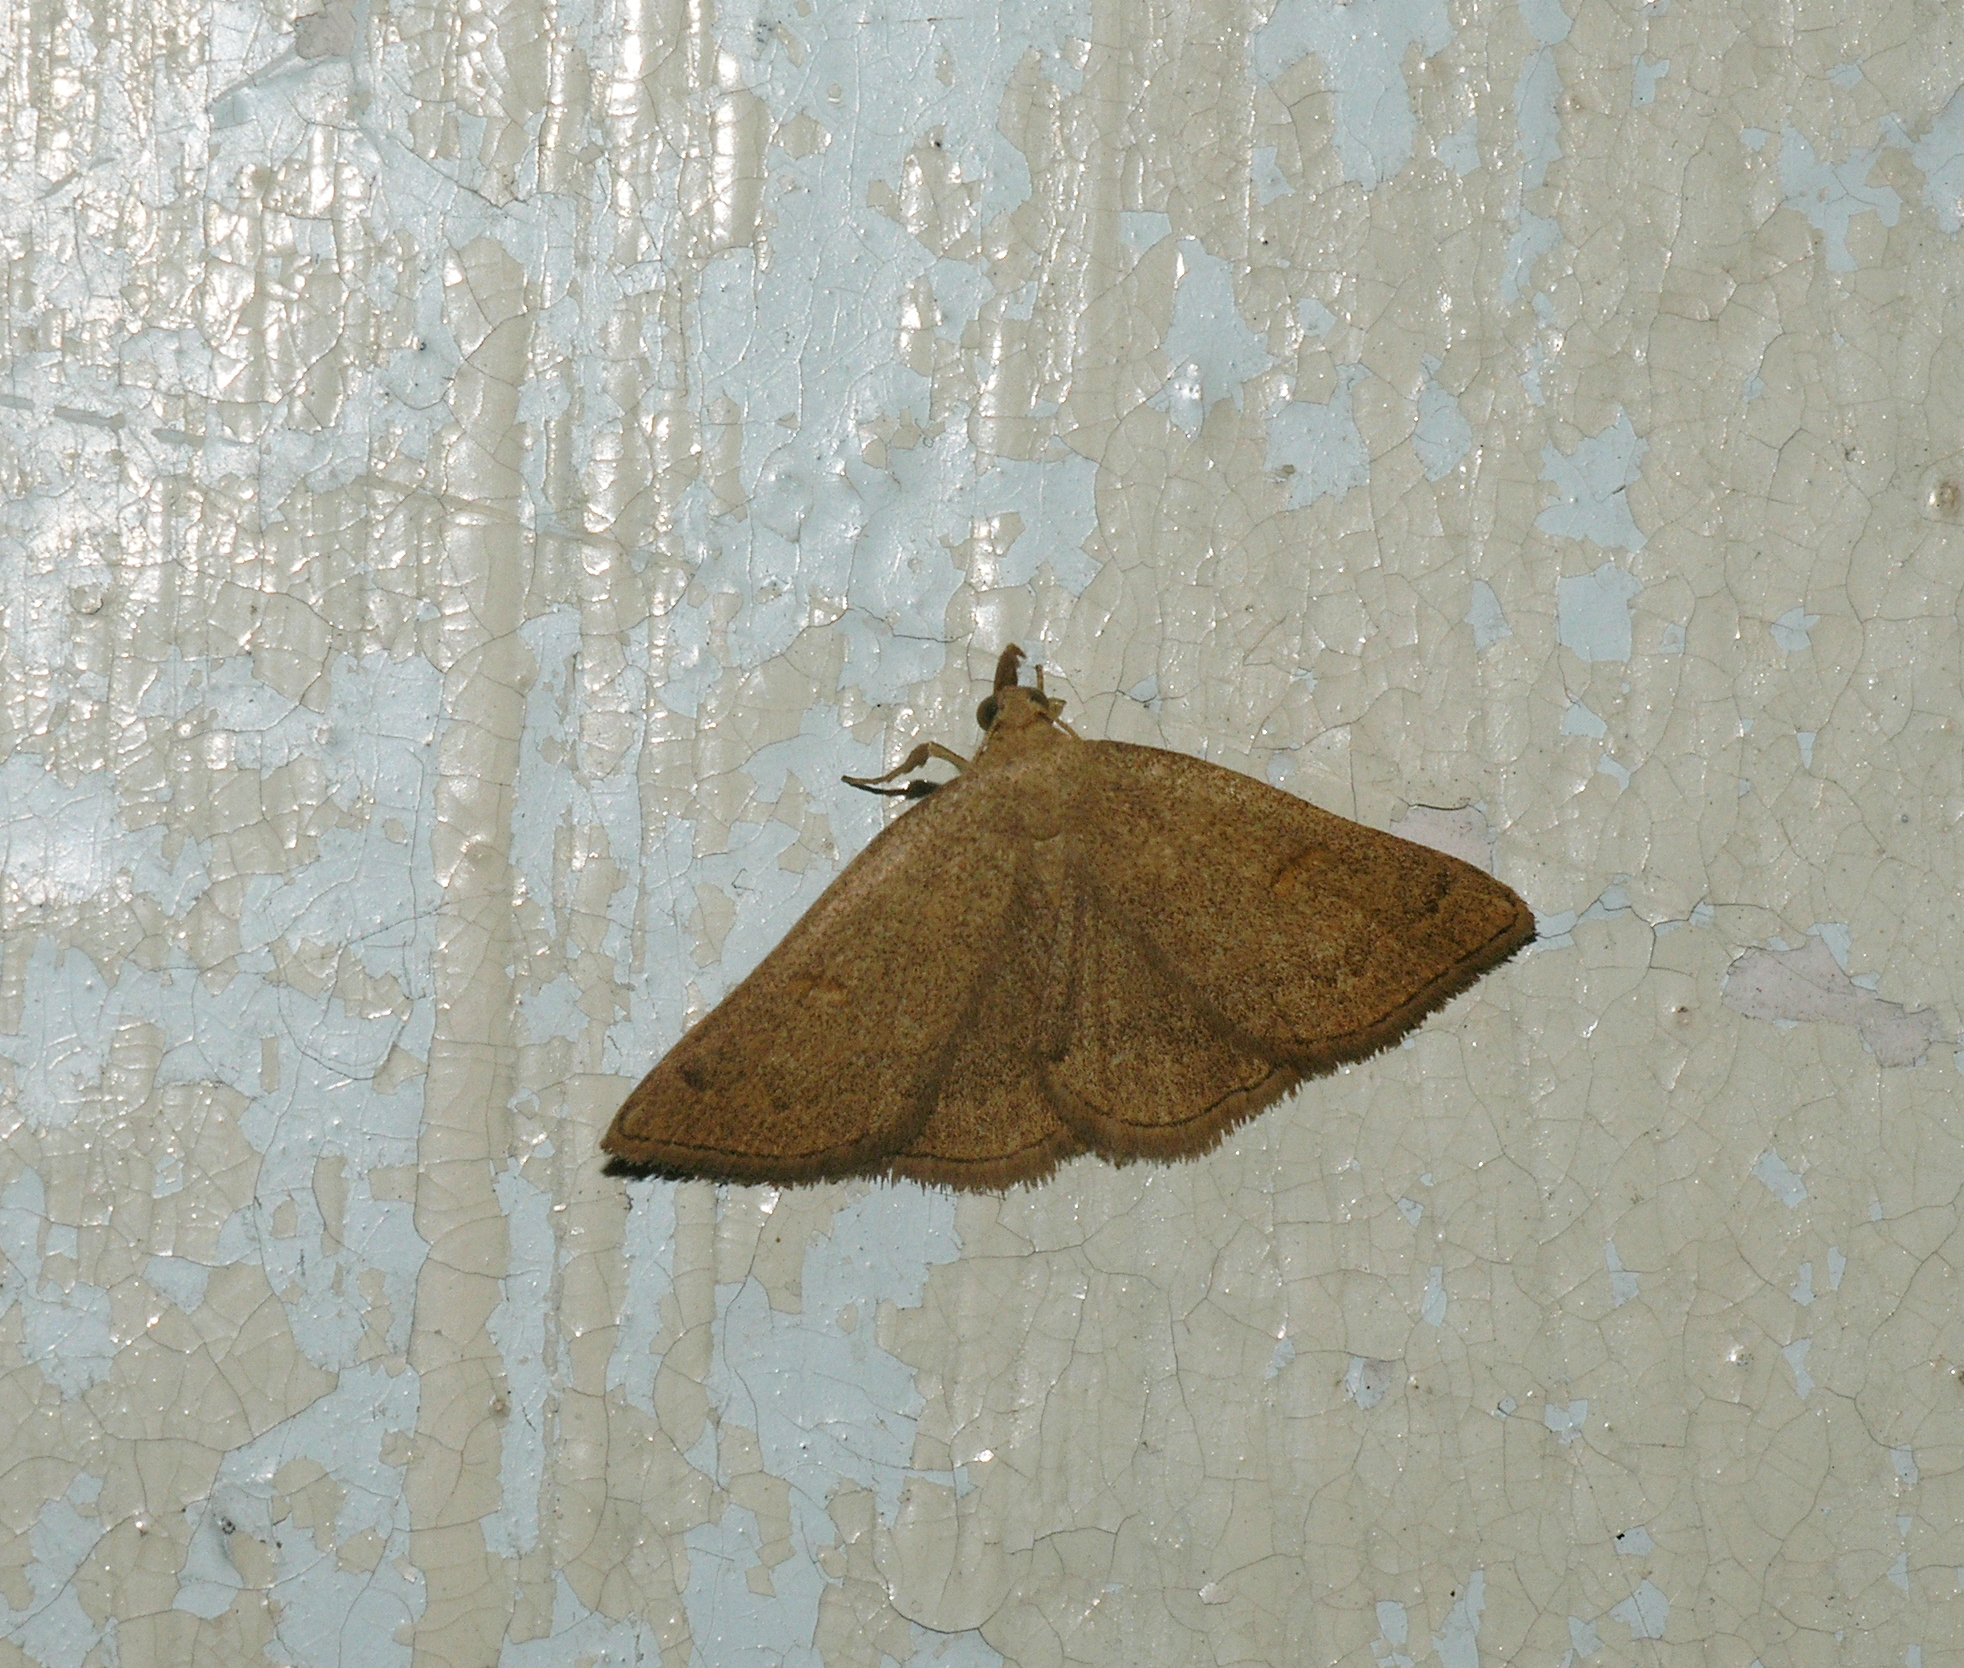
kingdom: Animalia
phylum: Arthropoda
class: Insecta
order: Lepidoptera
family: Erebidae
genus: Paracolax
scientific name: Paracolax tristalis
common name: Clay fan-foot
